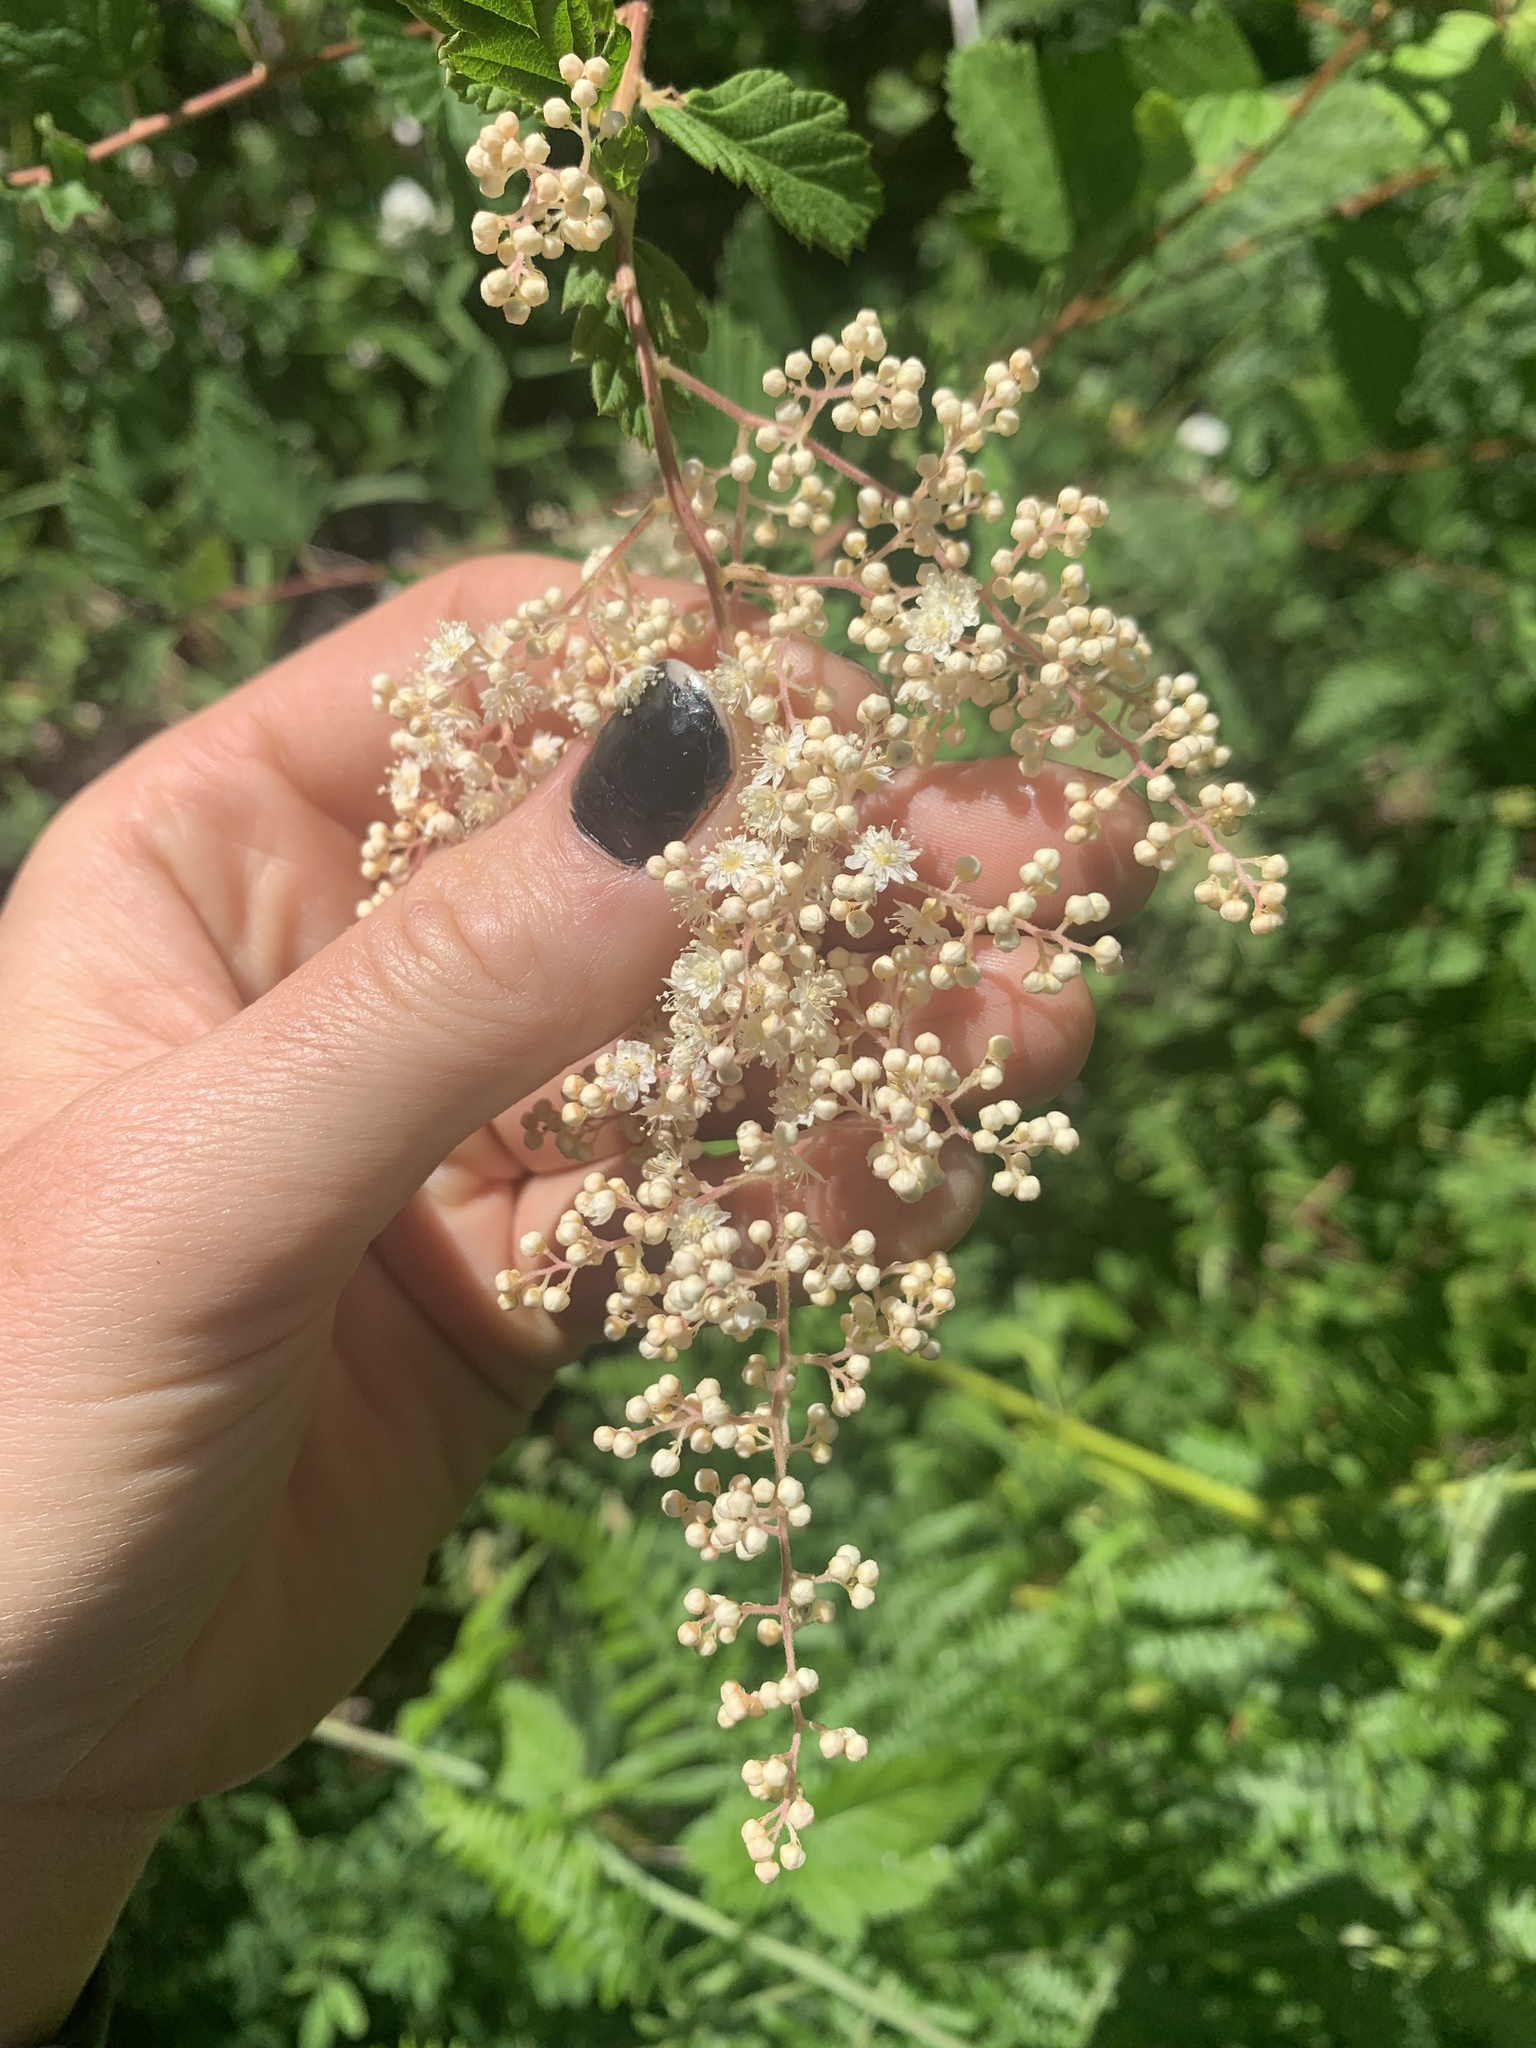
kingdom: Plantae
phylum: Tracheophyta
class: Magnoliopsida
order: Rosales
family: Rosaceae
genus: Holodiscus
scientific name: Holodiscus discolor
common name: Oceanspray
